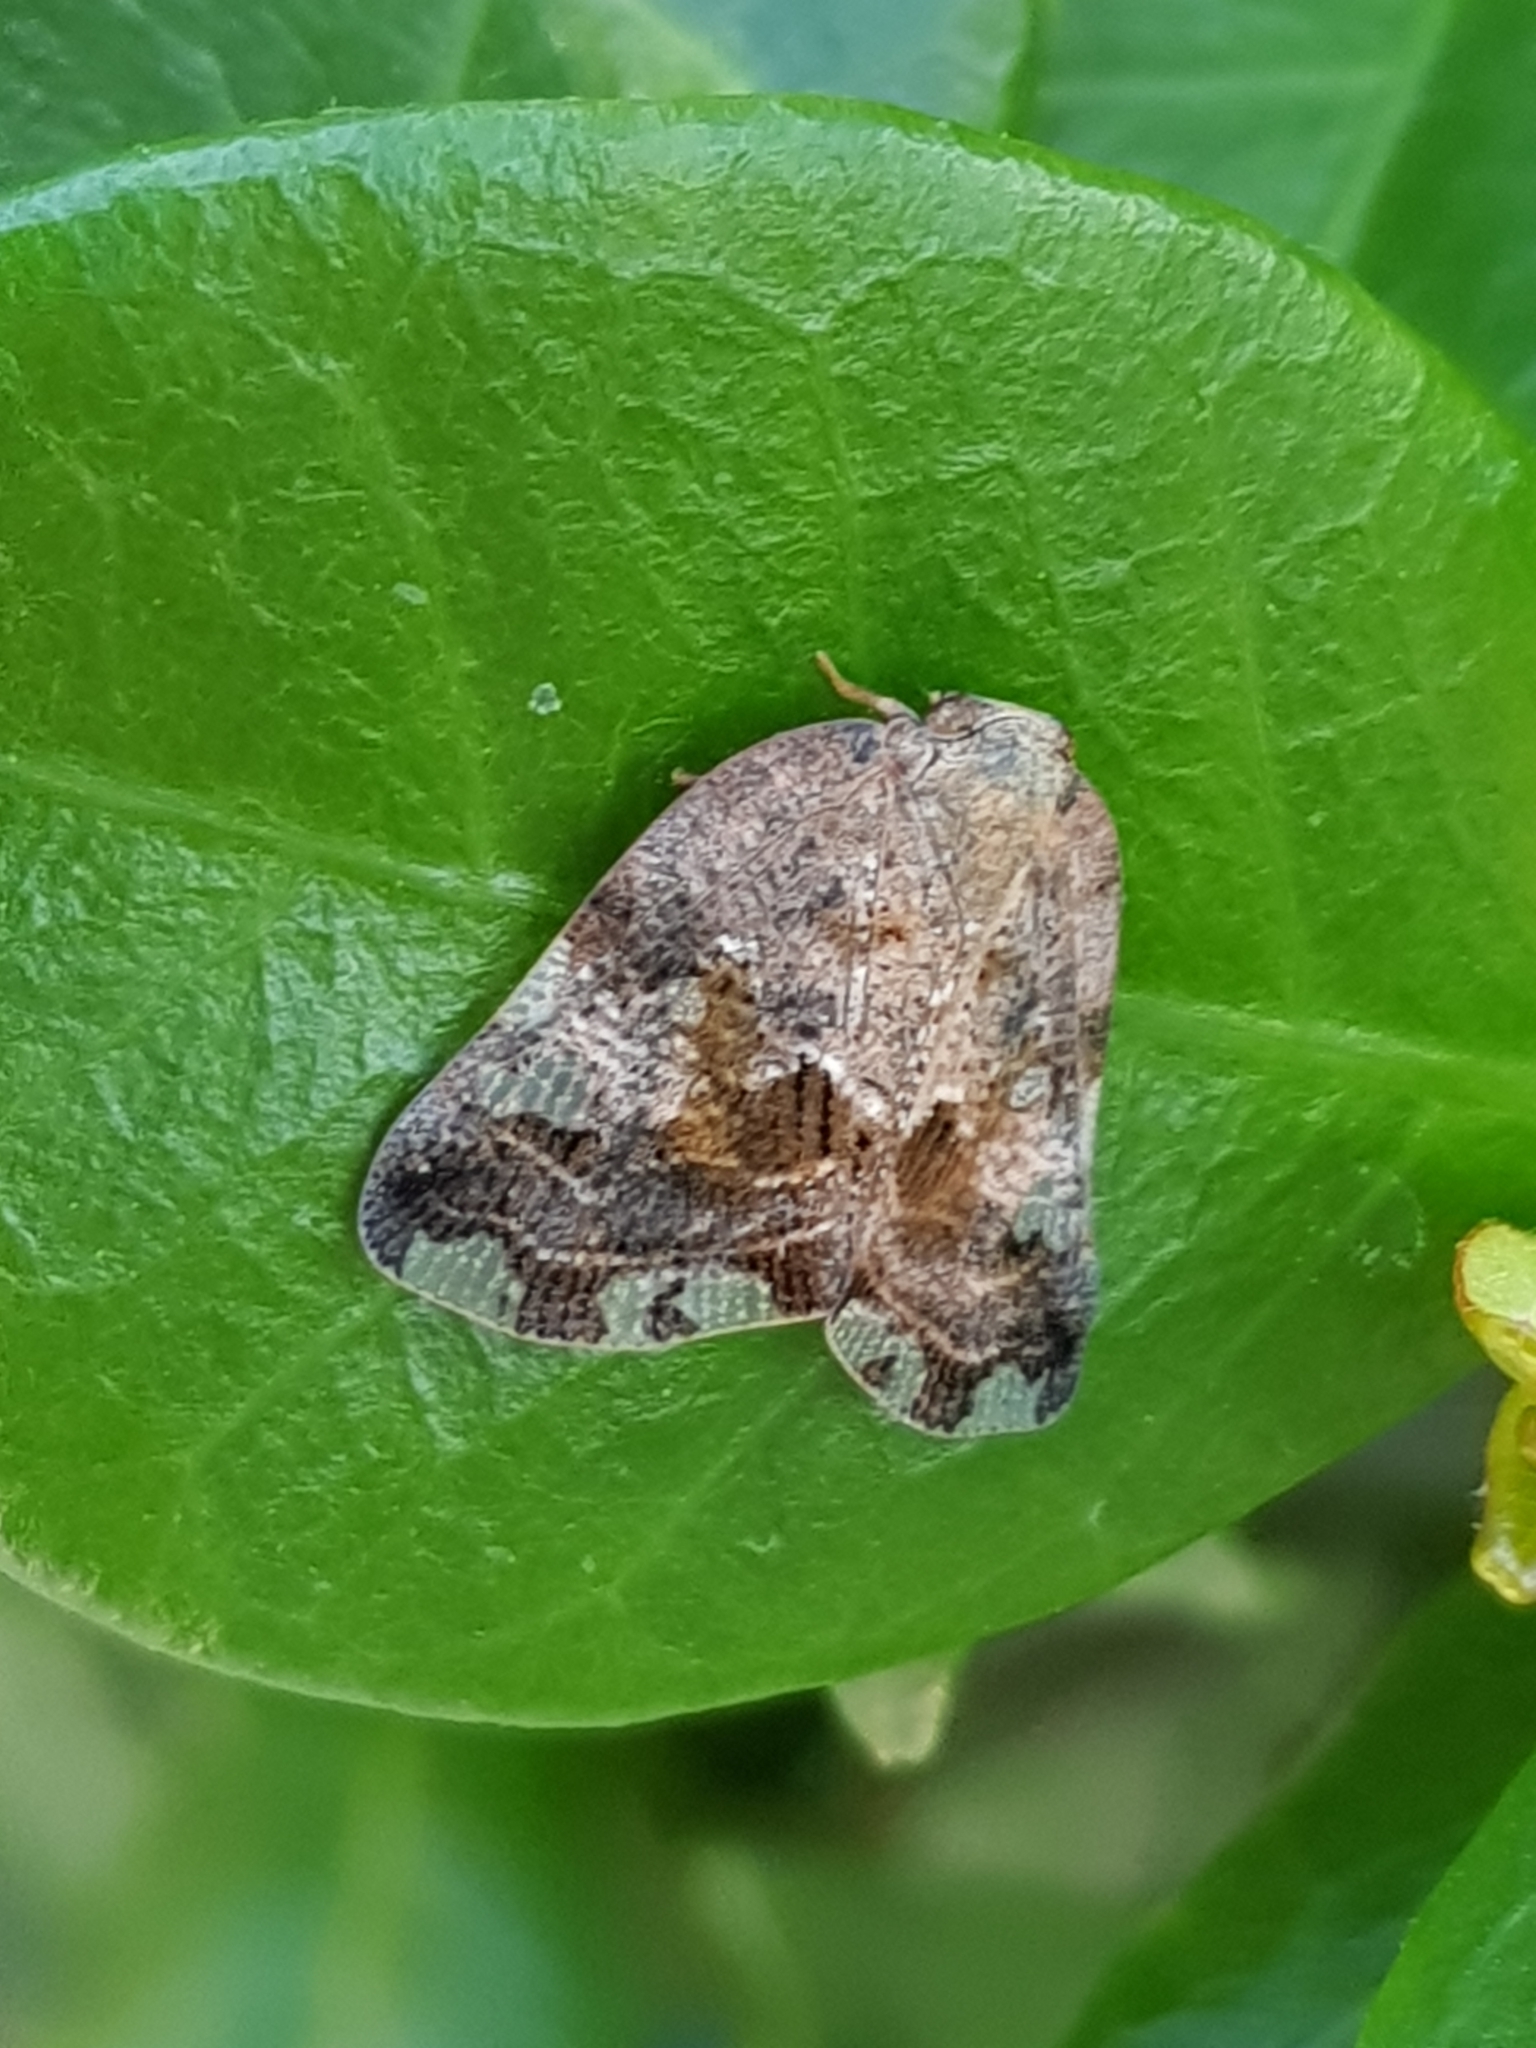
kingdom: Animalia
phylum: Arthropoda
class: Insecta
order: Hemiptera
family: Ricaniidae
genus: Ricania
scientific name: Ricania speculum
